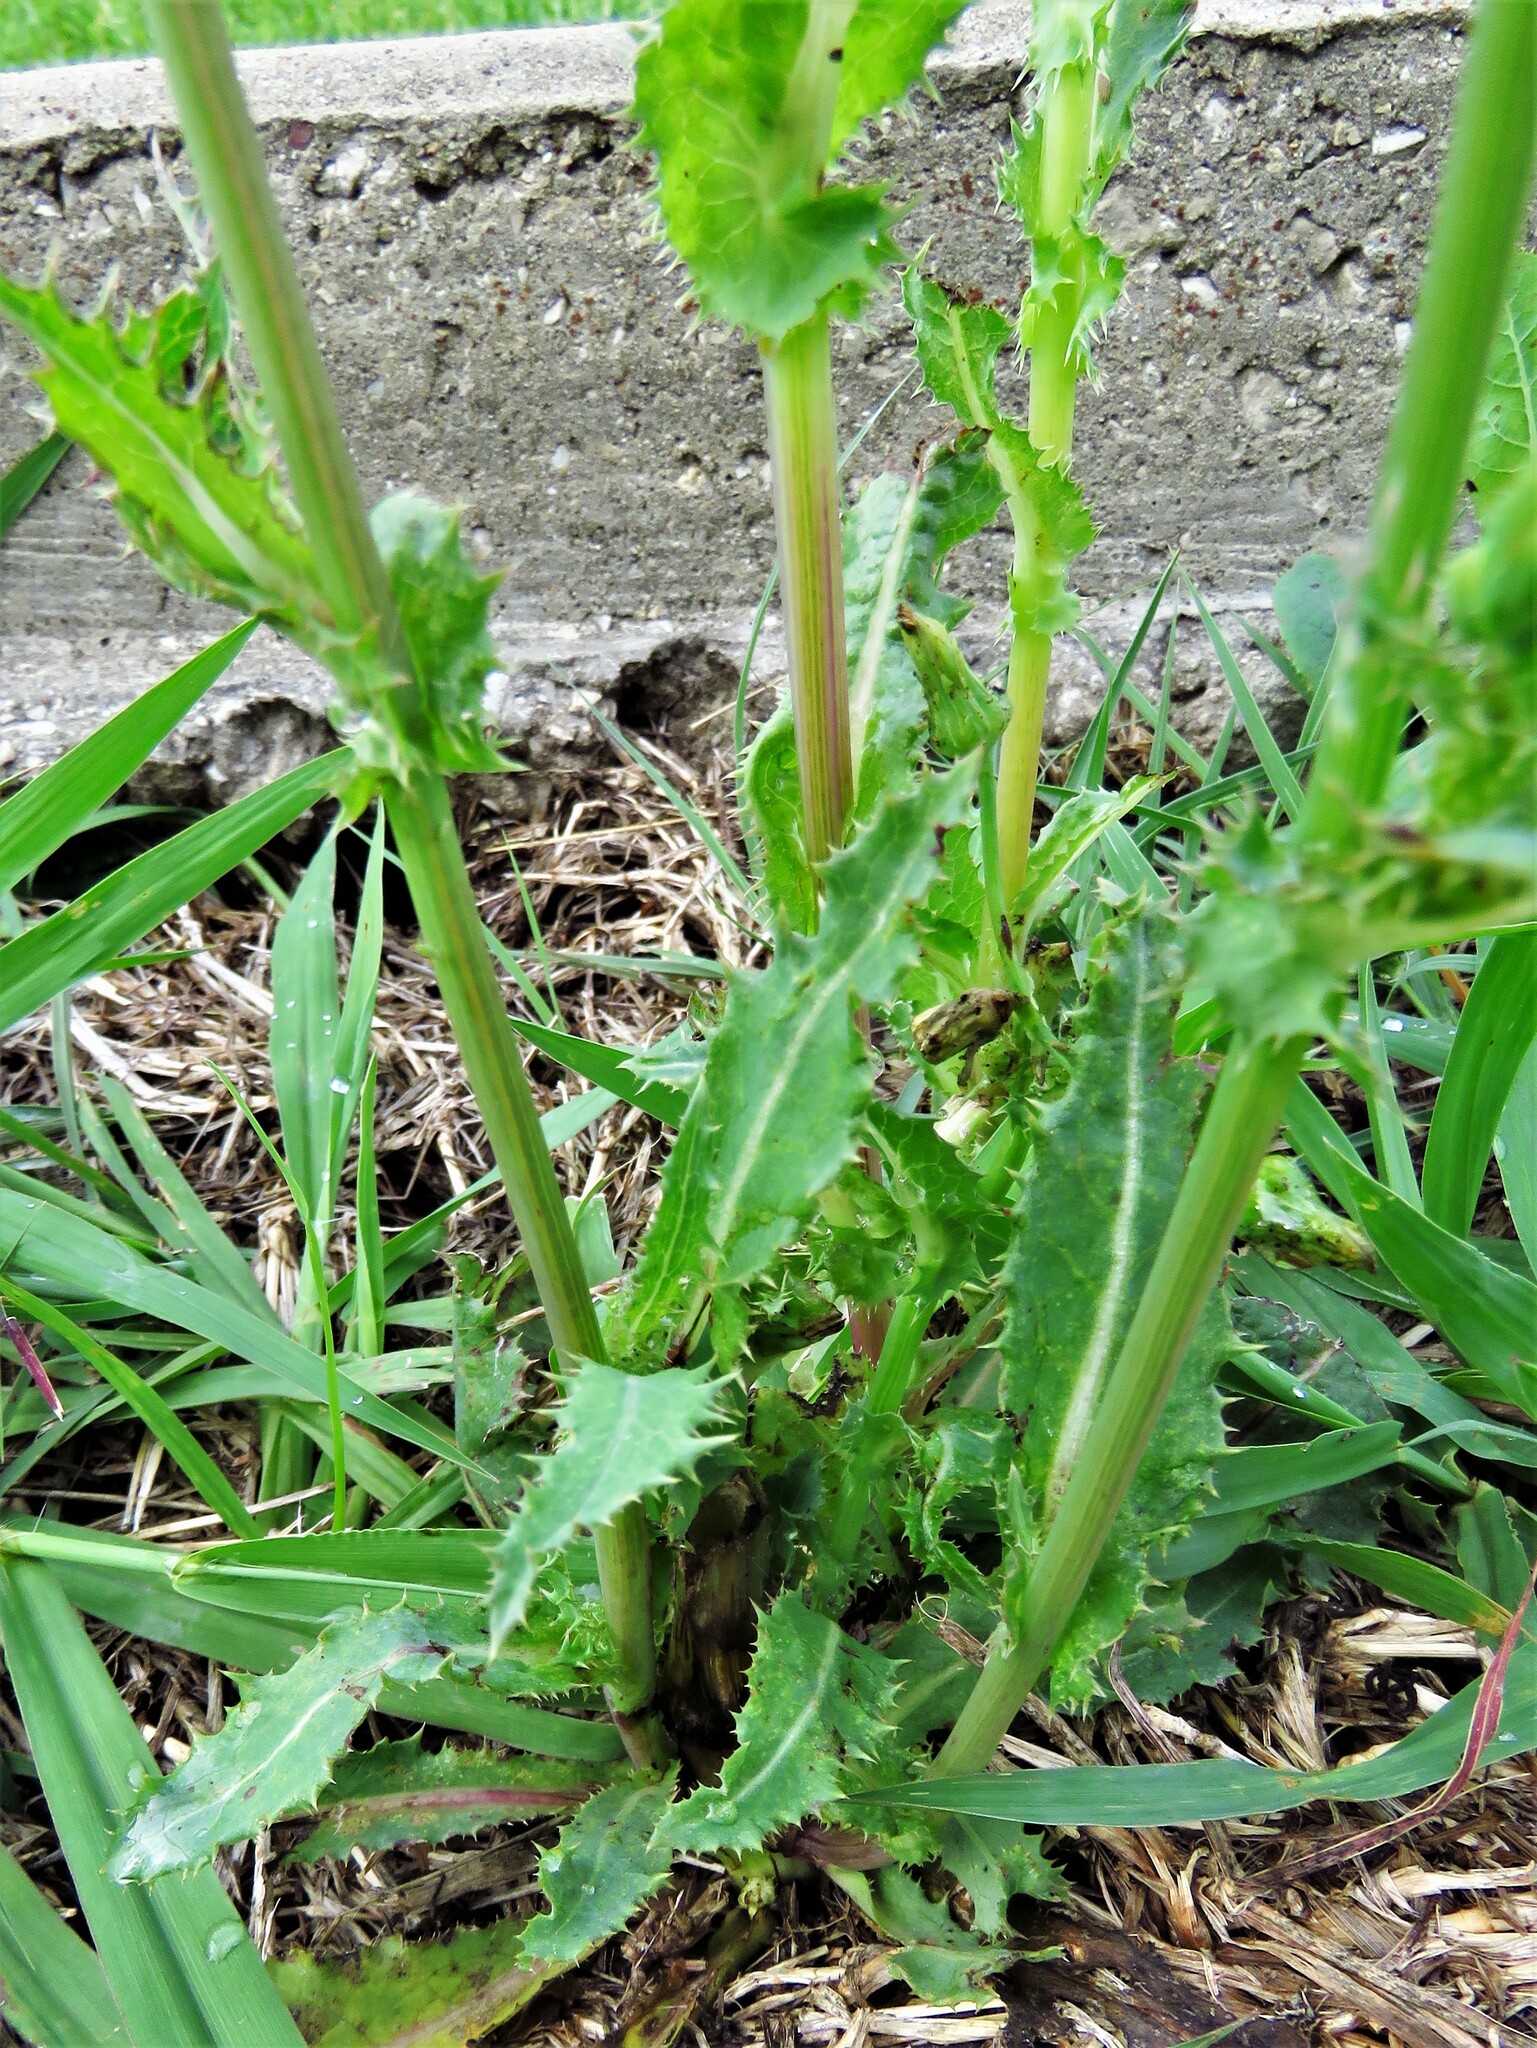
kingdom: Plantae
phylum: Tracheophyta
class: Magnoliopsida
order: Asterales
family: Asteraceae
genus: Sonchus
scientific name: Sonchus asper
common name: Prickly sow-thistle
